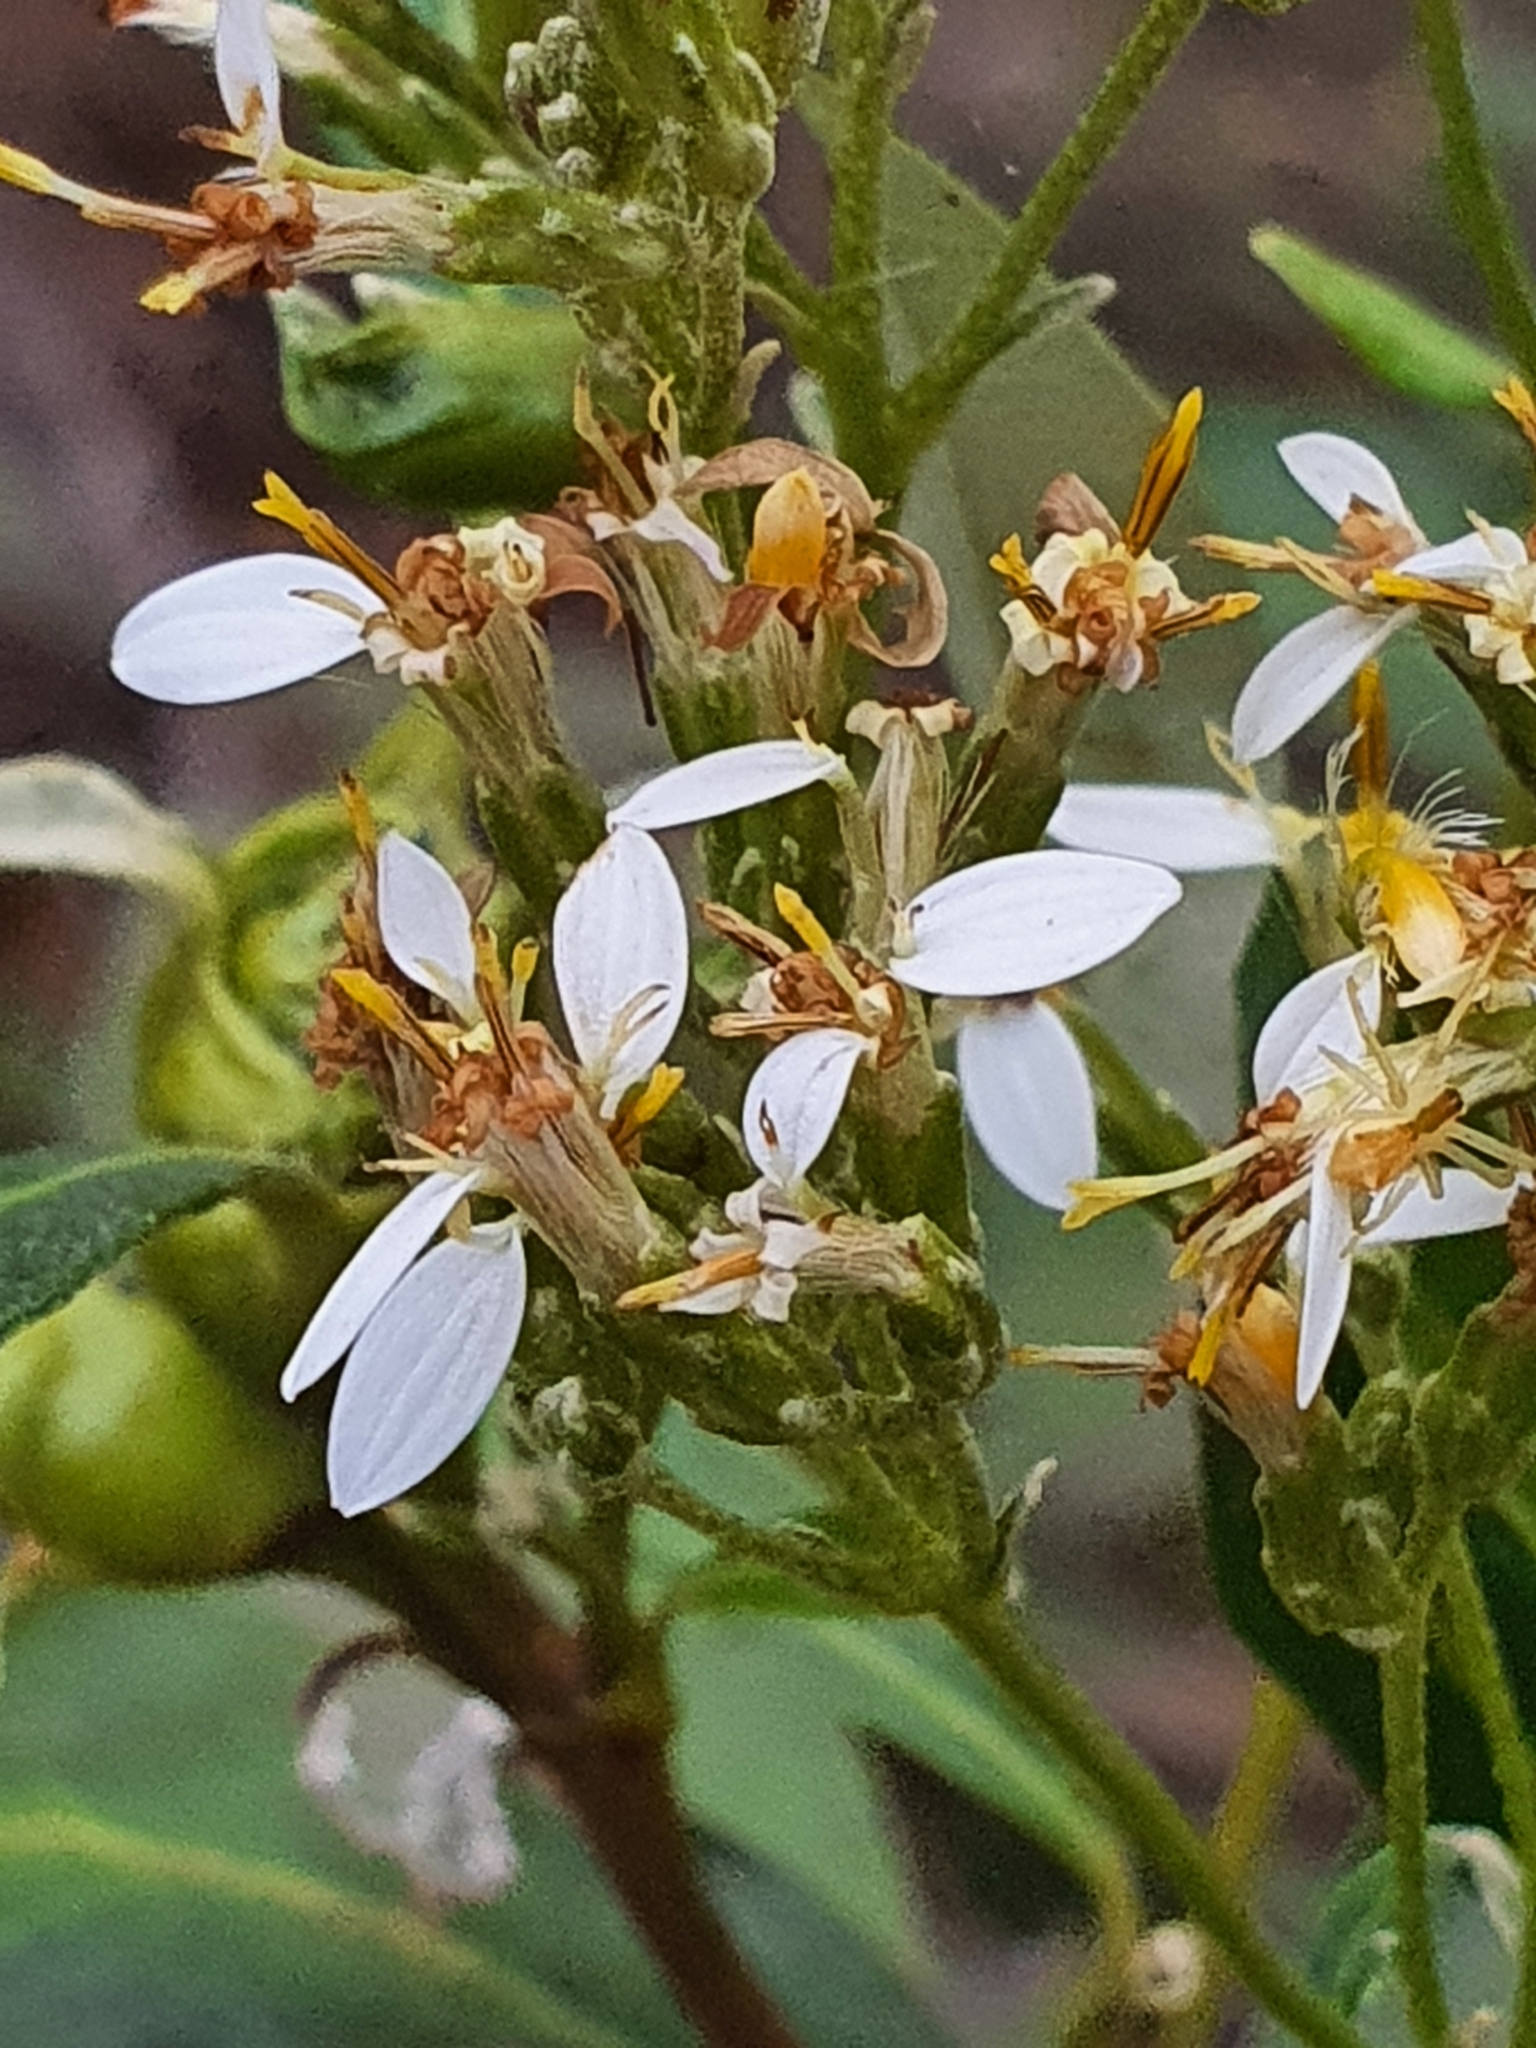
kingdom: Plantae
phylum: Tracheophyta
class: Magnoliopsida
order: Asterales
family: Asteraceae
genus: Olearia
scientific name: Olearia viscosa
